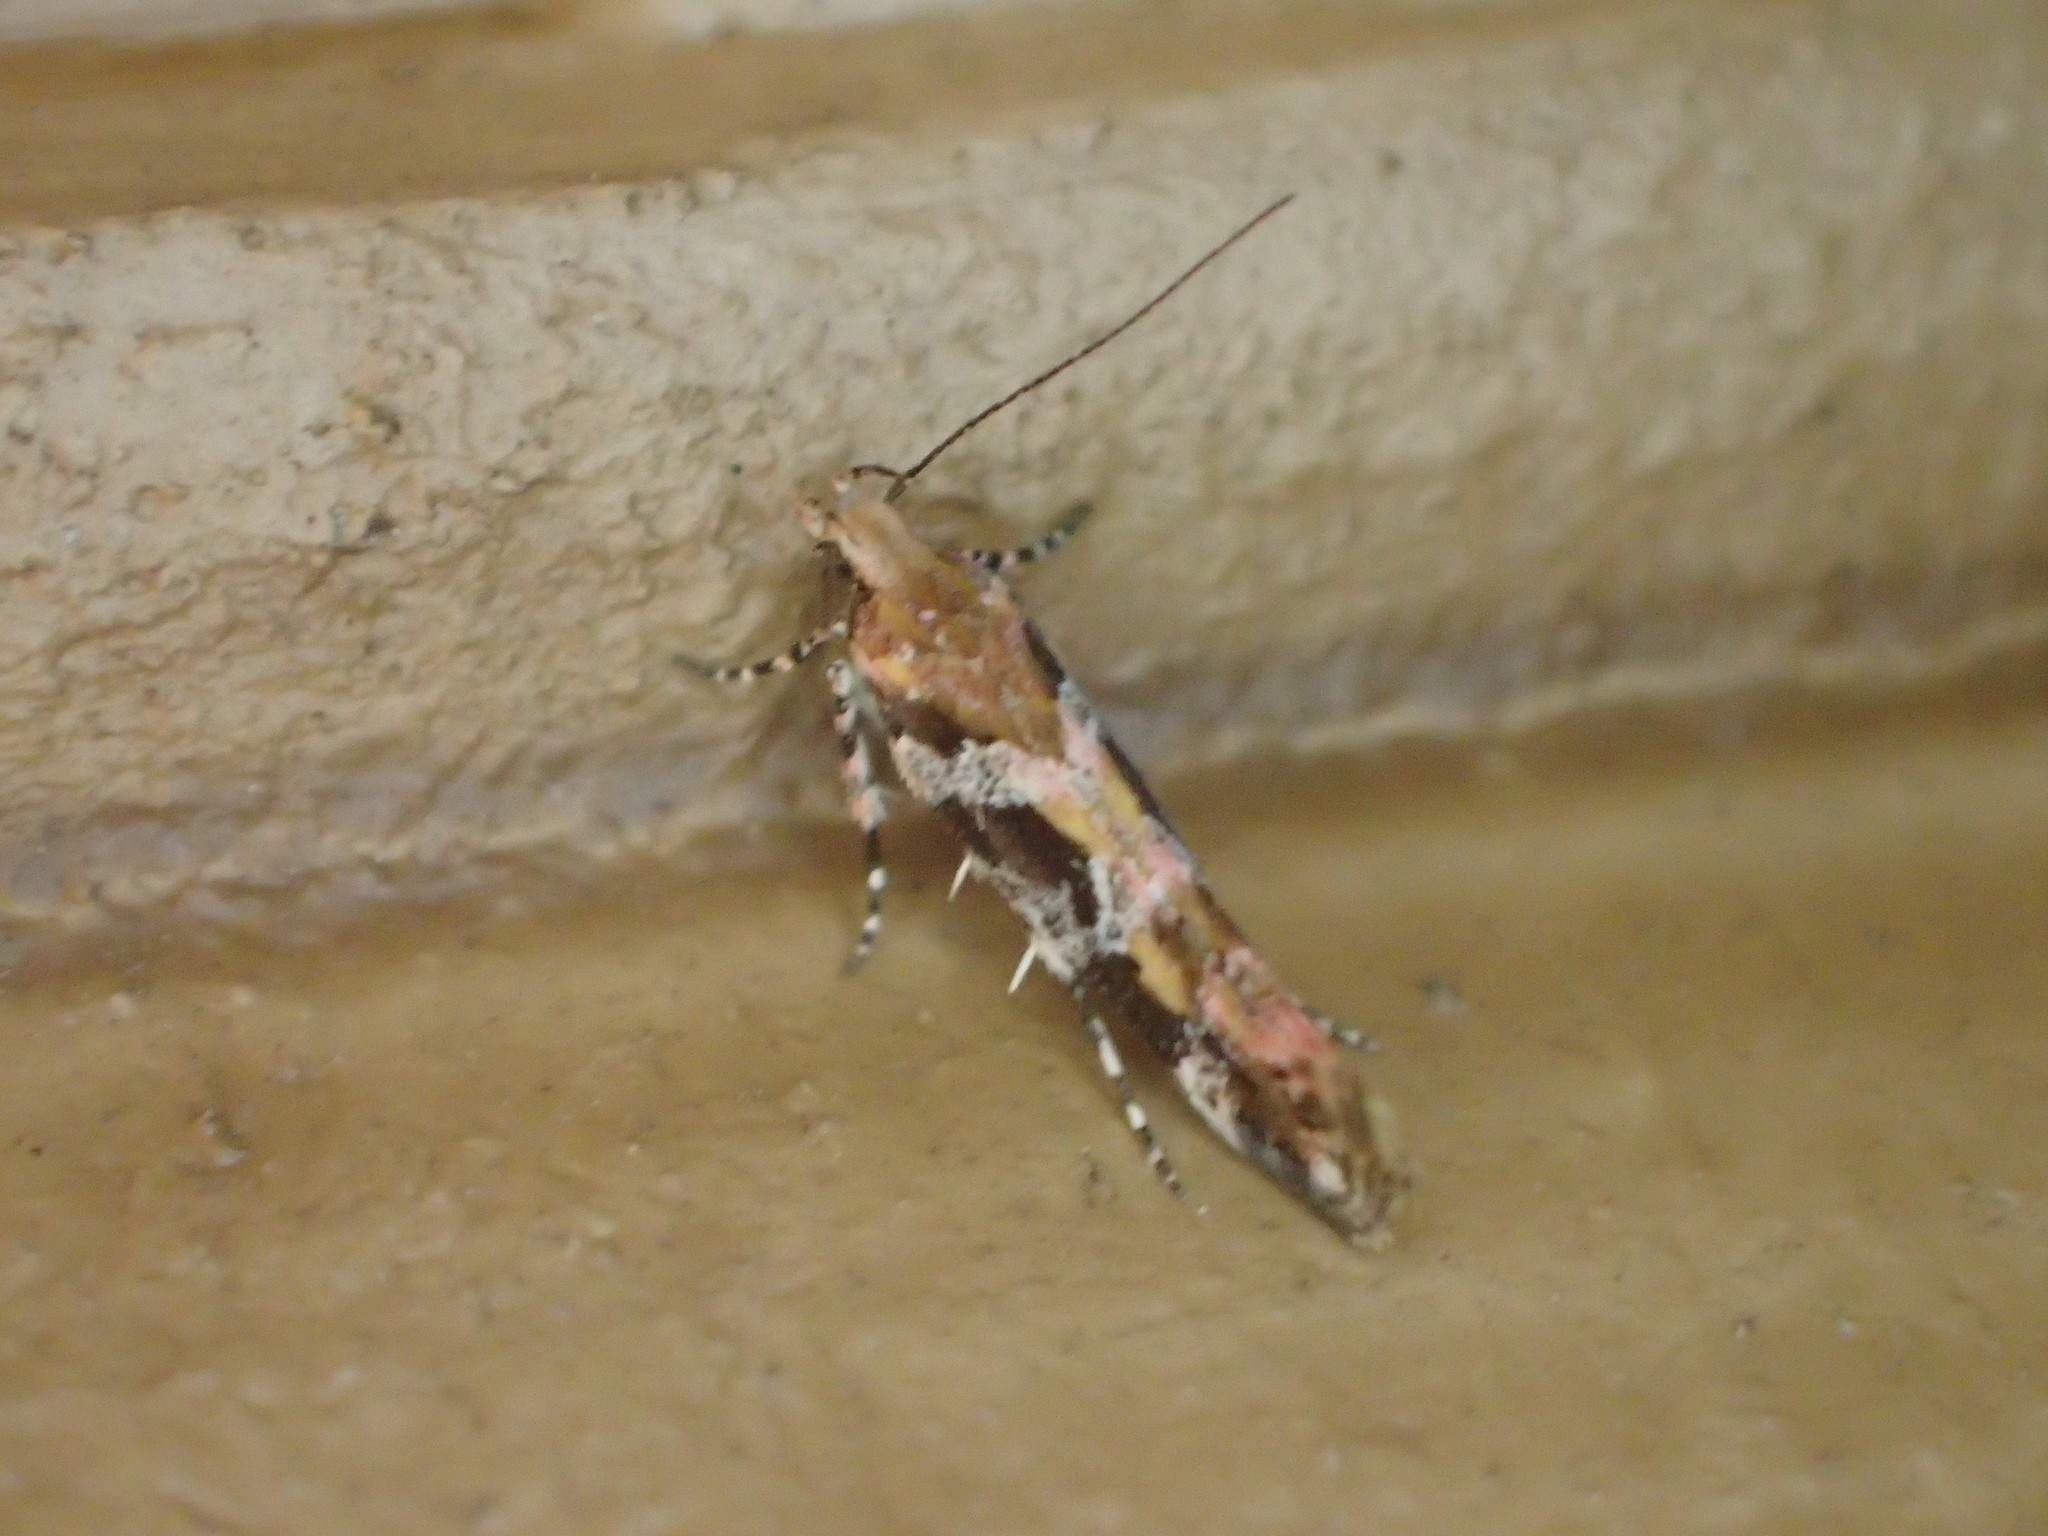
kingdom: Animalia
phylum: Arthropoda
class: Insecta
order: Lepidoptera
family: Gelechiidae
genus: Aristotelia
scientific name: Aristotelia roseosuffusella
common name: Pink-washed aristotelia moth
